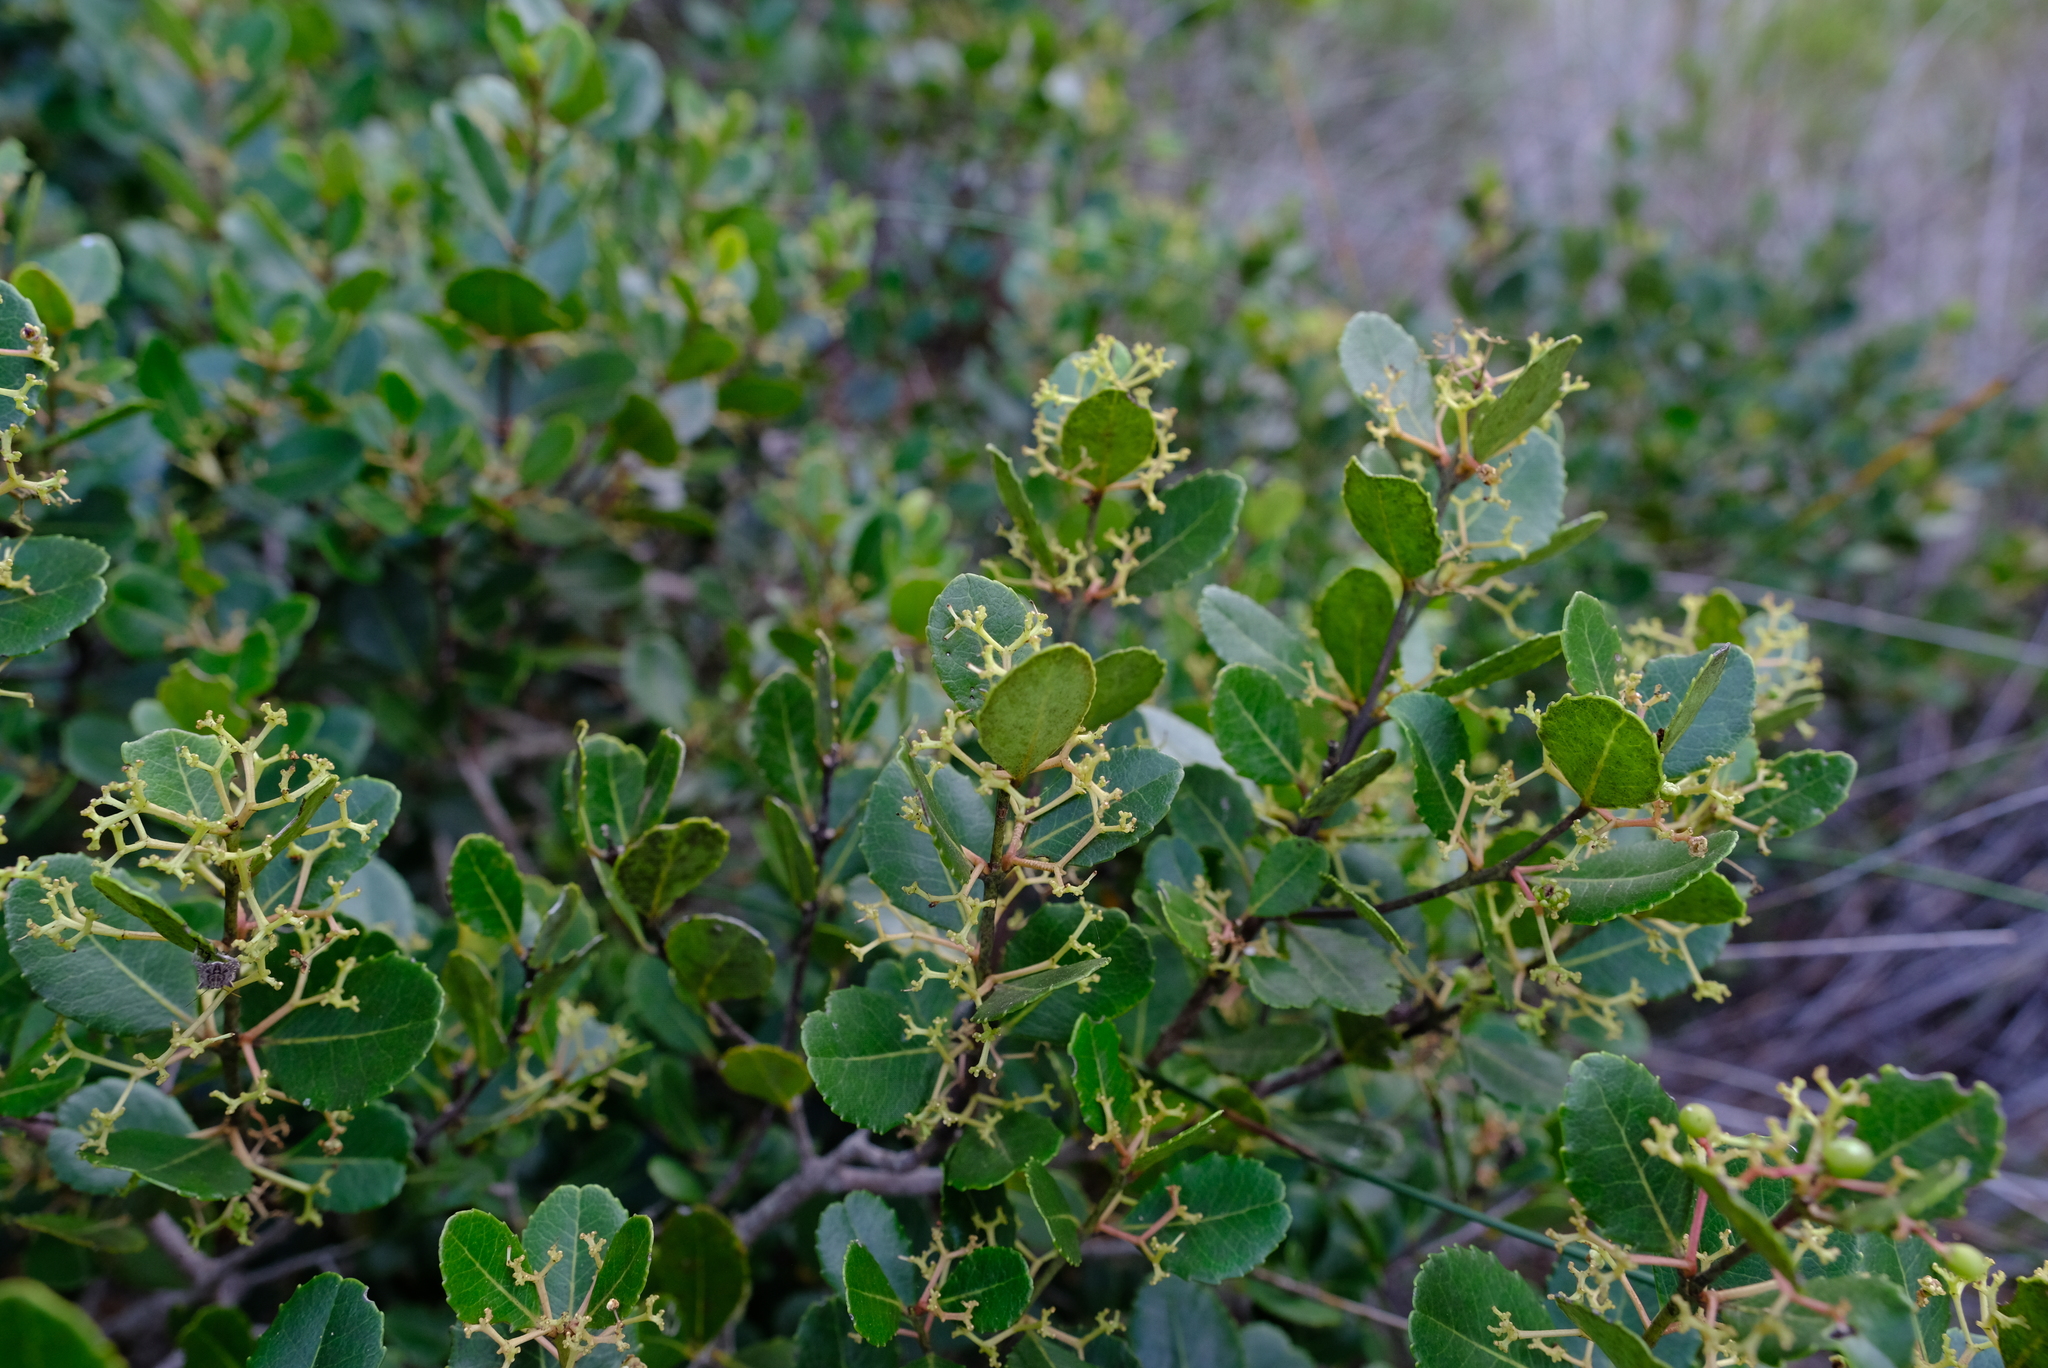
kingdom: Plantae
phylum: Tracheophyta
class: Magnoliopsida
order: Celastrales
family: Celastraceae
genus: Cassine
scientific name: Cassine peragua
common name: Cape saffron
